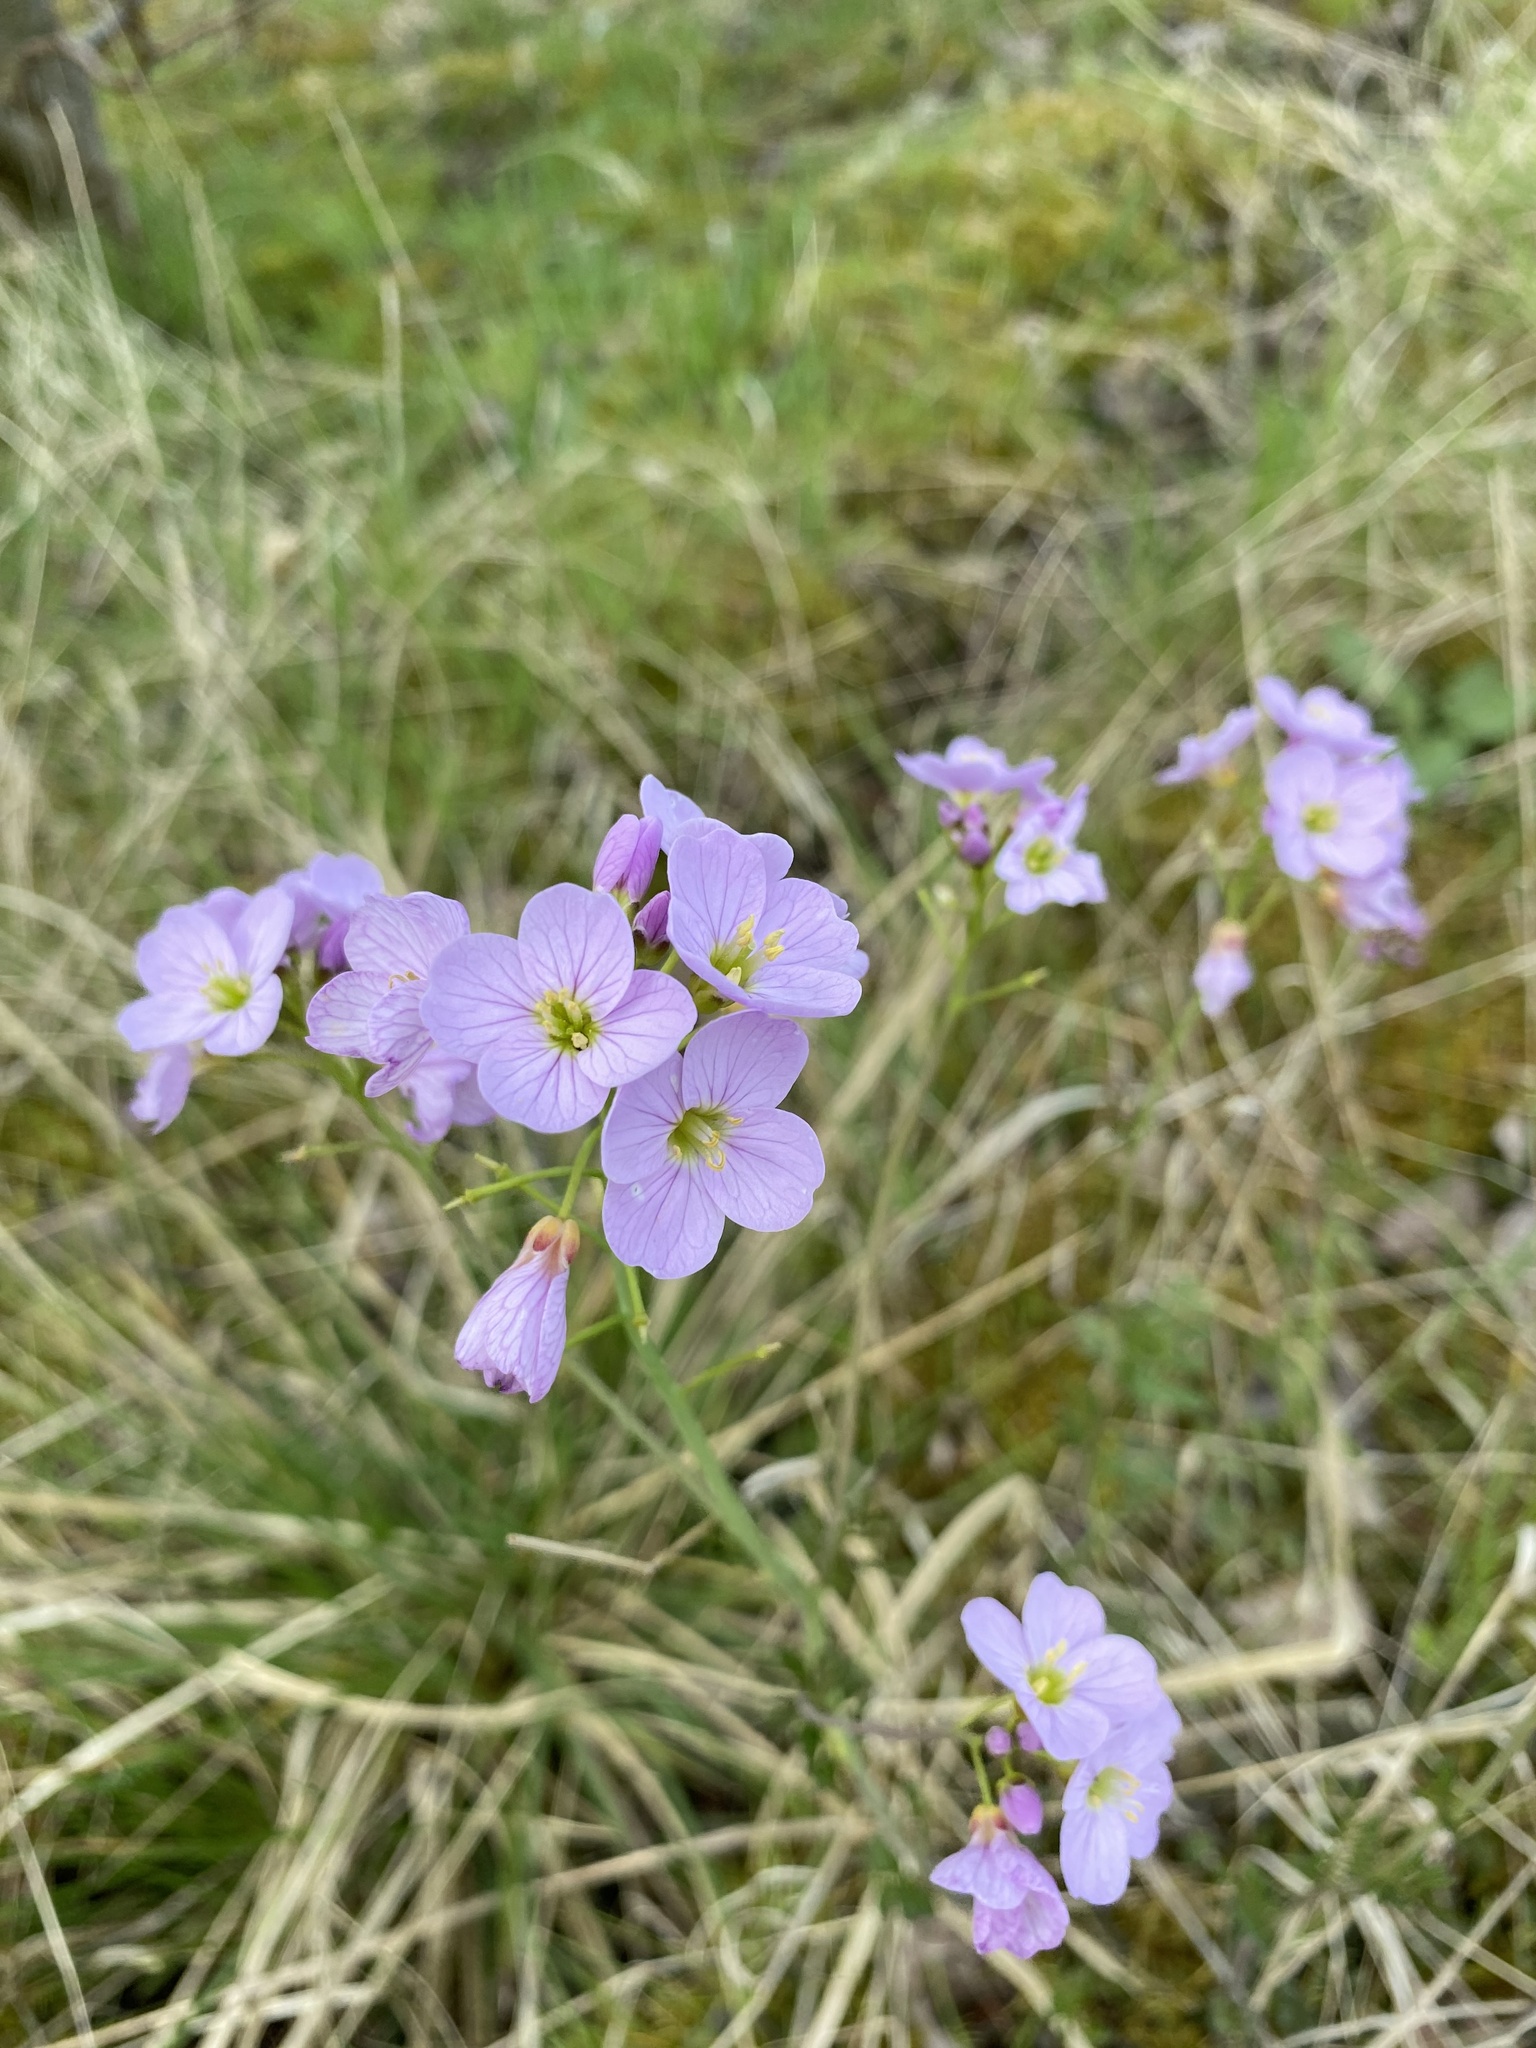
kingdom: Plantae
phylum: Tracheophyta
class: Magnoliopsida
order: Brassicales
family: Brassicaceae
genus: Cardamine
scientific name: Cardamine pratensis
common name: Cuckoo flower
